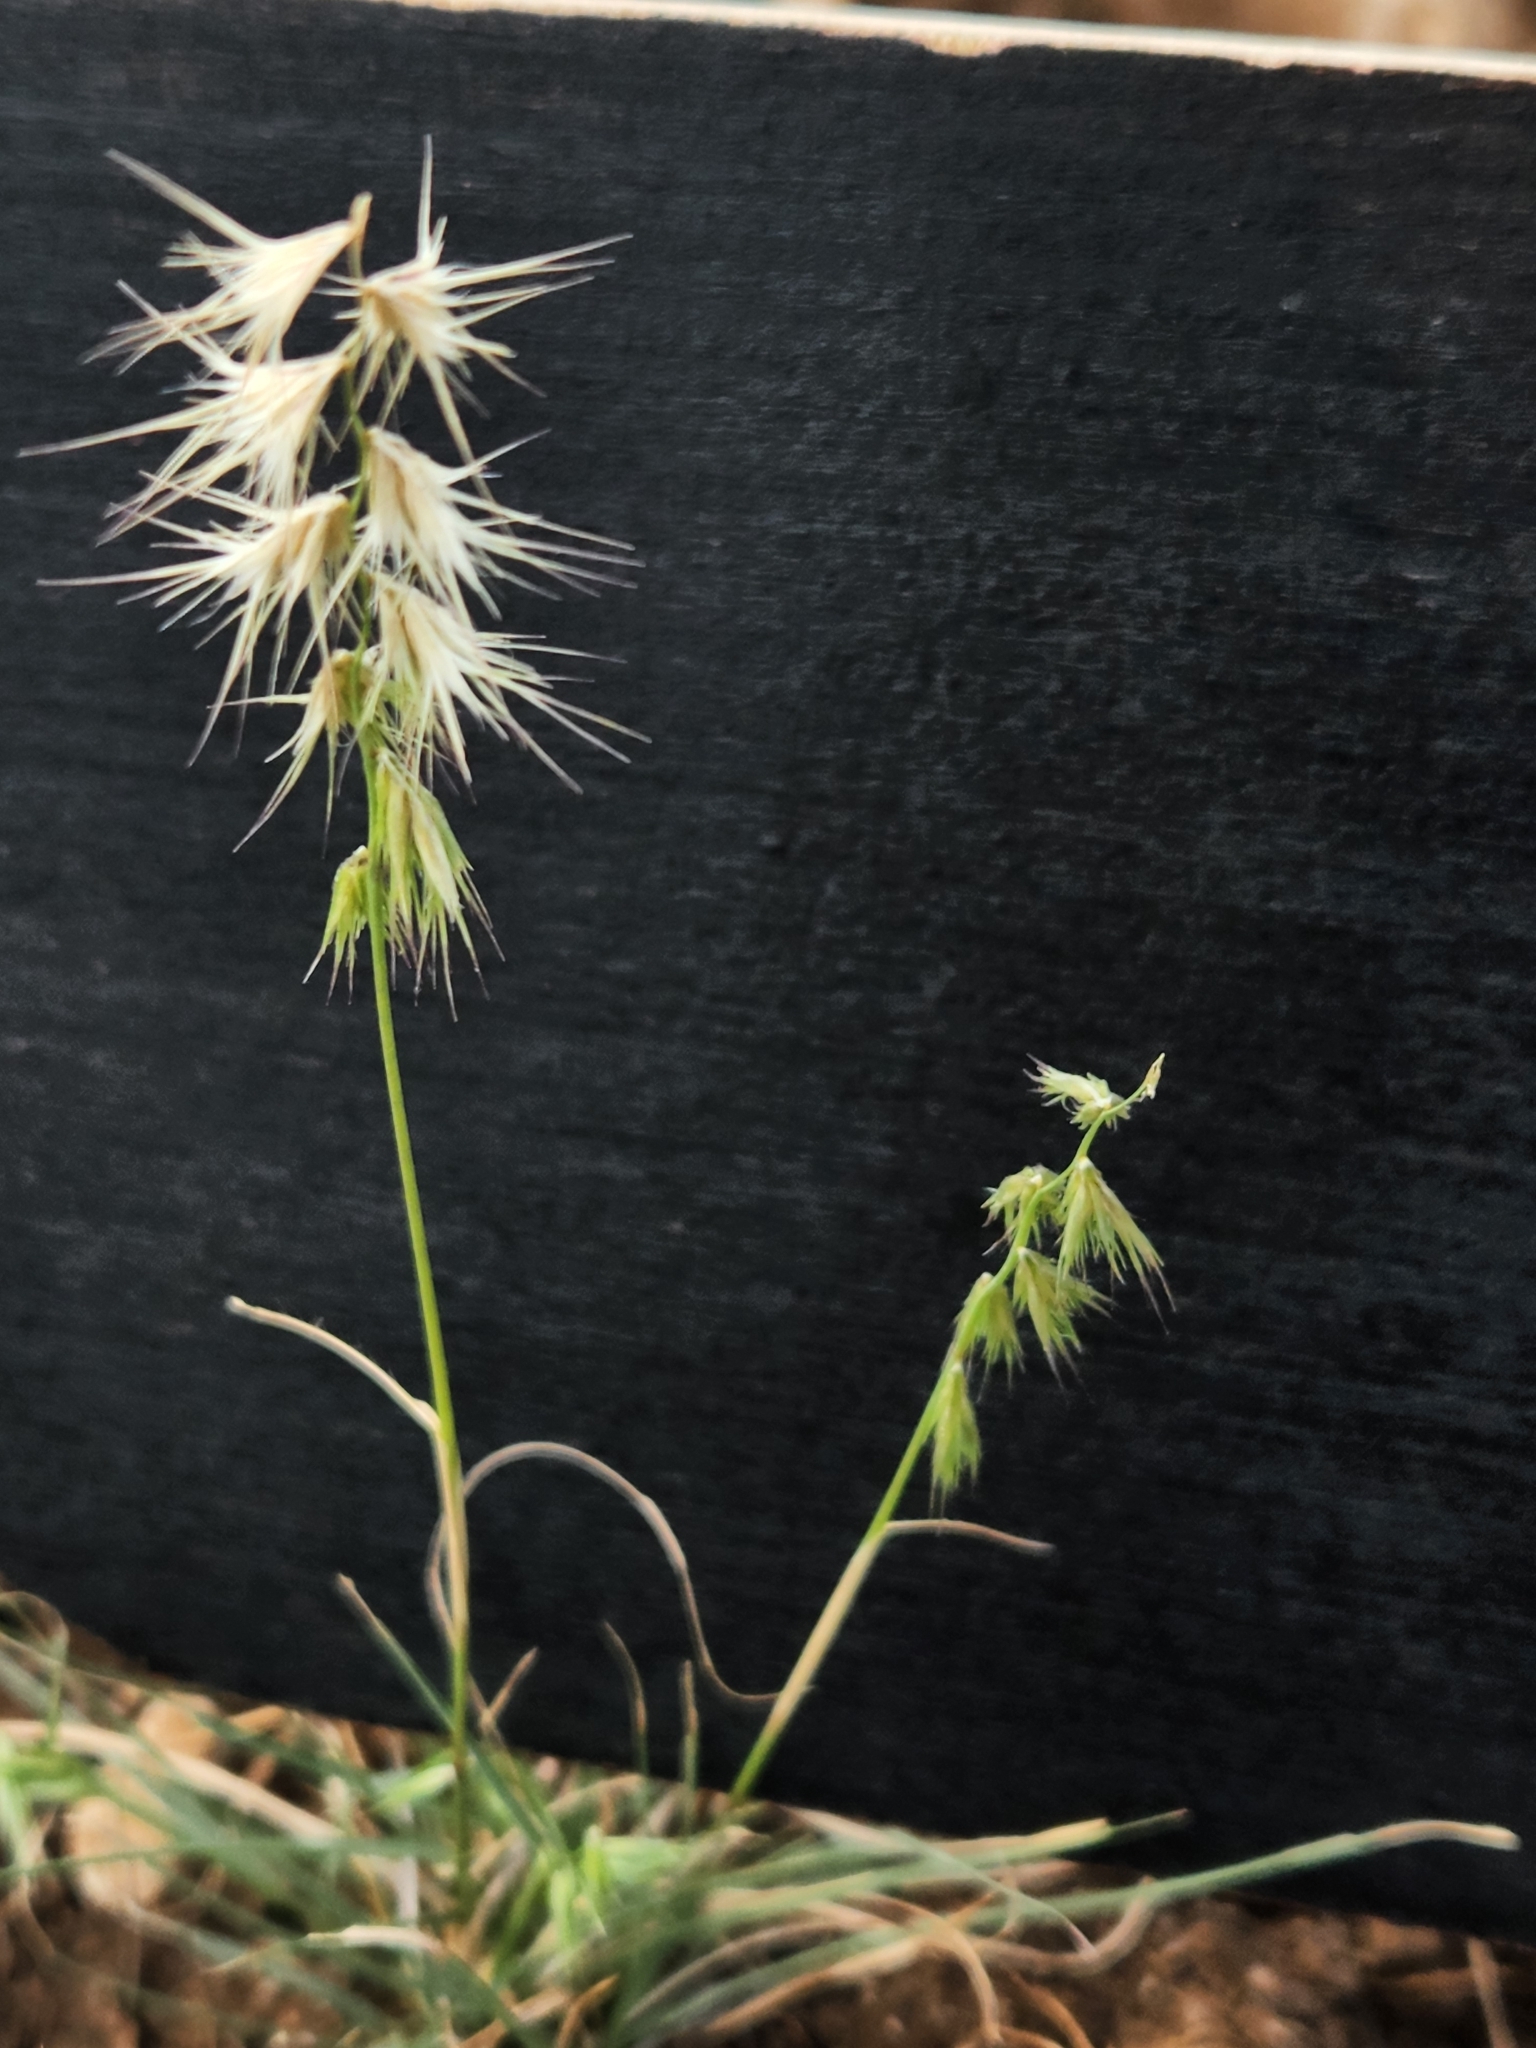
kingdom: Plantae
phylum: Tracheophyta
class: Liliopsida
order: Poales
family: Poaceae
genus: Bouteloua
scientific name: Bouteloua rigidiseta
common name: Texas grama
